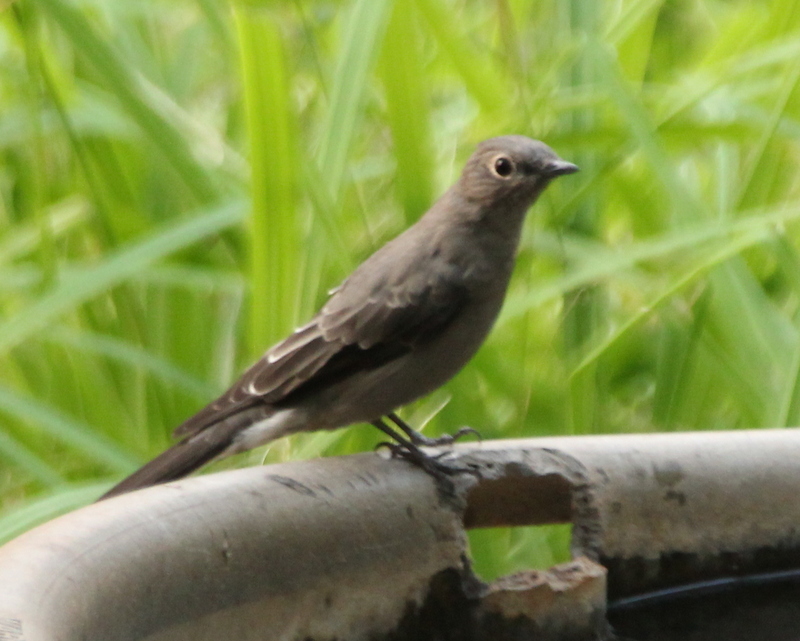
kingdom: Animalia
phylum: Chordata
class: Aves
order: Passeriformes
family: Turdidae
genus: Myadestes
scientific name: Myadestes townsendi
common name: Townsend's solitaire
